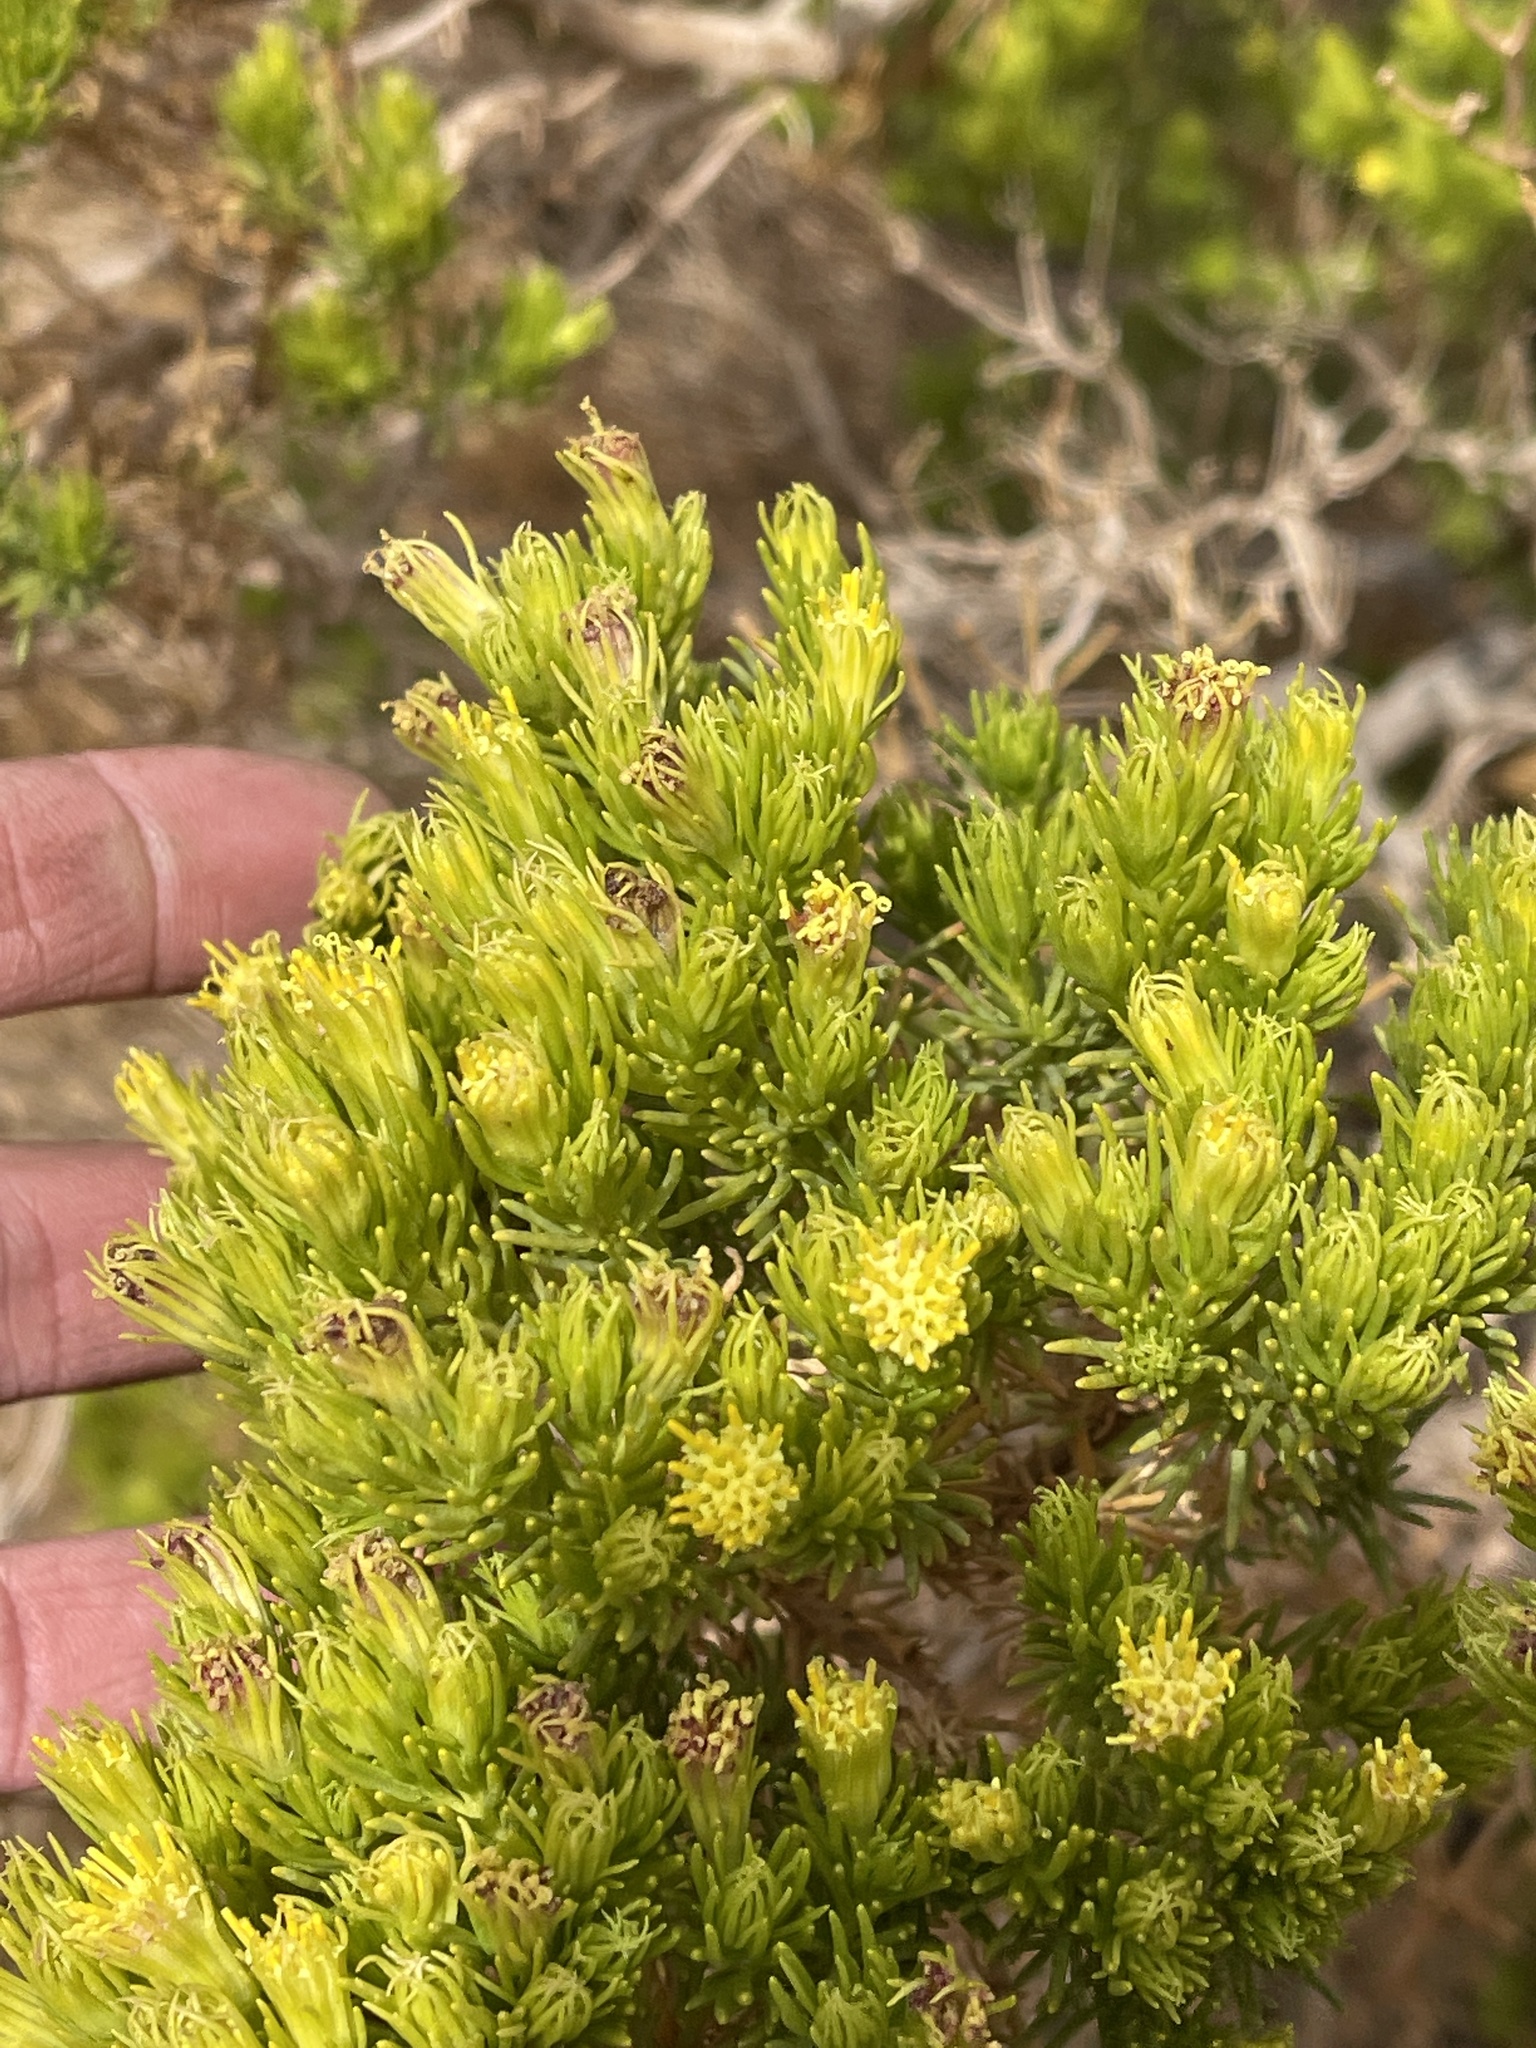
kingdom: Plantae
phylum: Tracheophyta
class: Magnoliopsida
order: Asterales
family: Asteraceae
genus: Peucephyllum
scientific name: Peucephyllum schottii
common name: Pygmy-cedar
